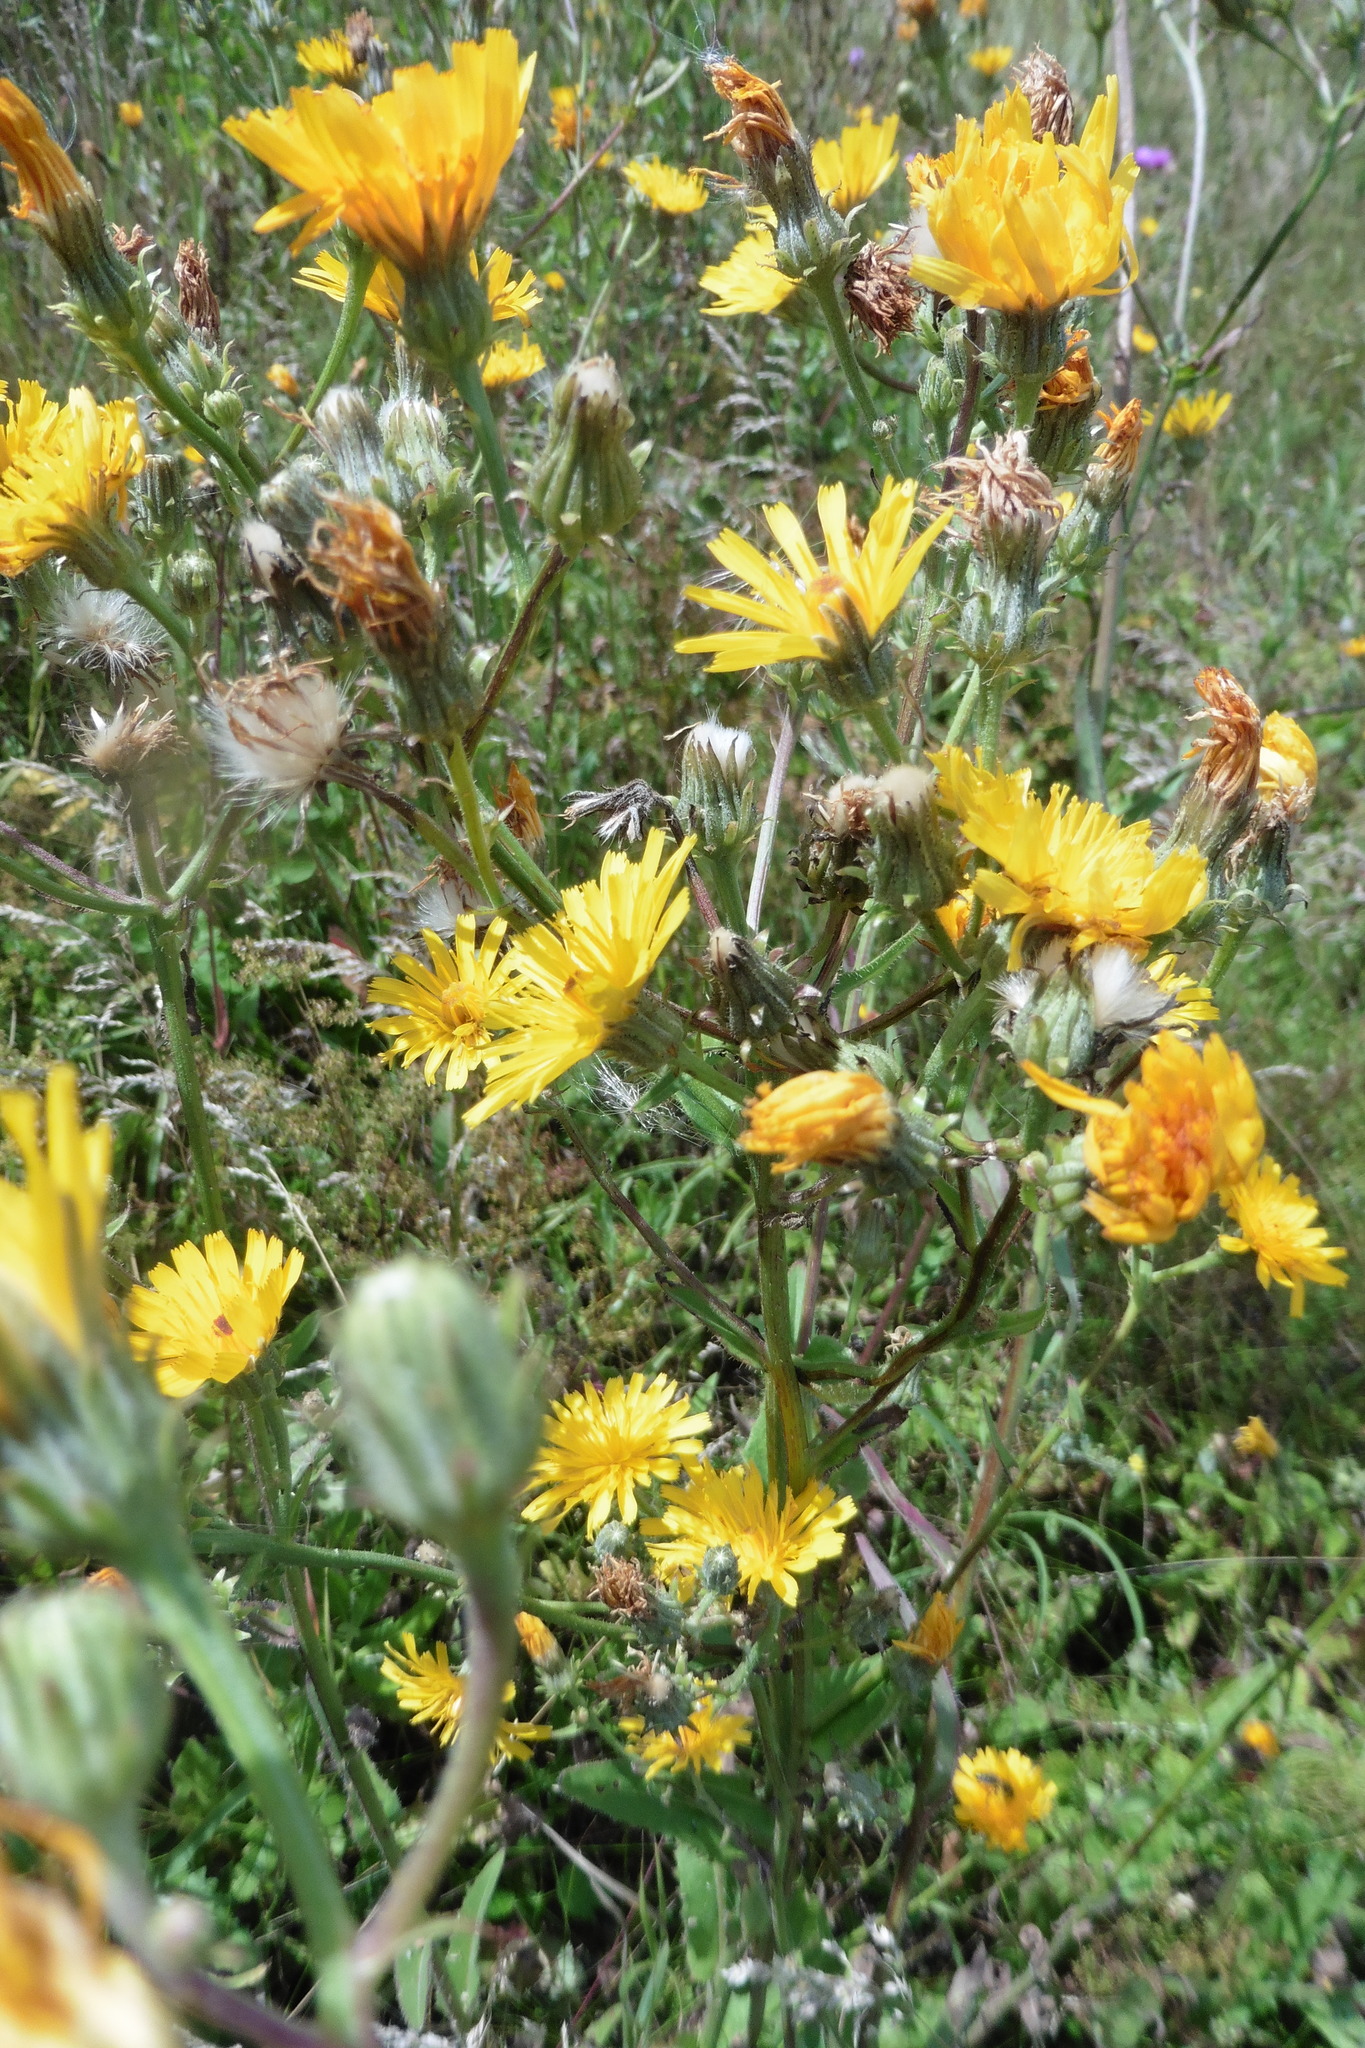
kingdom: Plantae
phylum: Tracheophyta
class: Magnoliopsida
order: Asterales
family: Asteraceae
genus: Picris
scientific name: Picris hieracioides
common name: Hawkweed oxtongue
